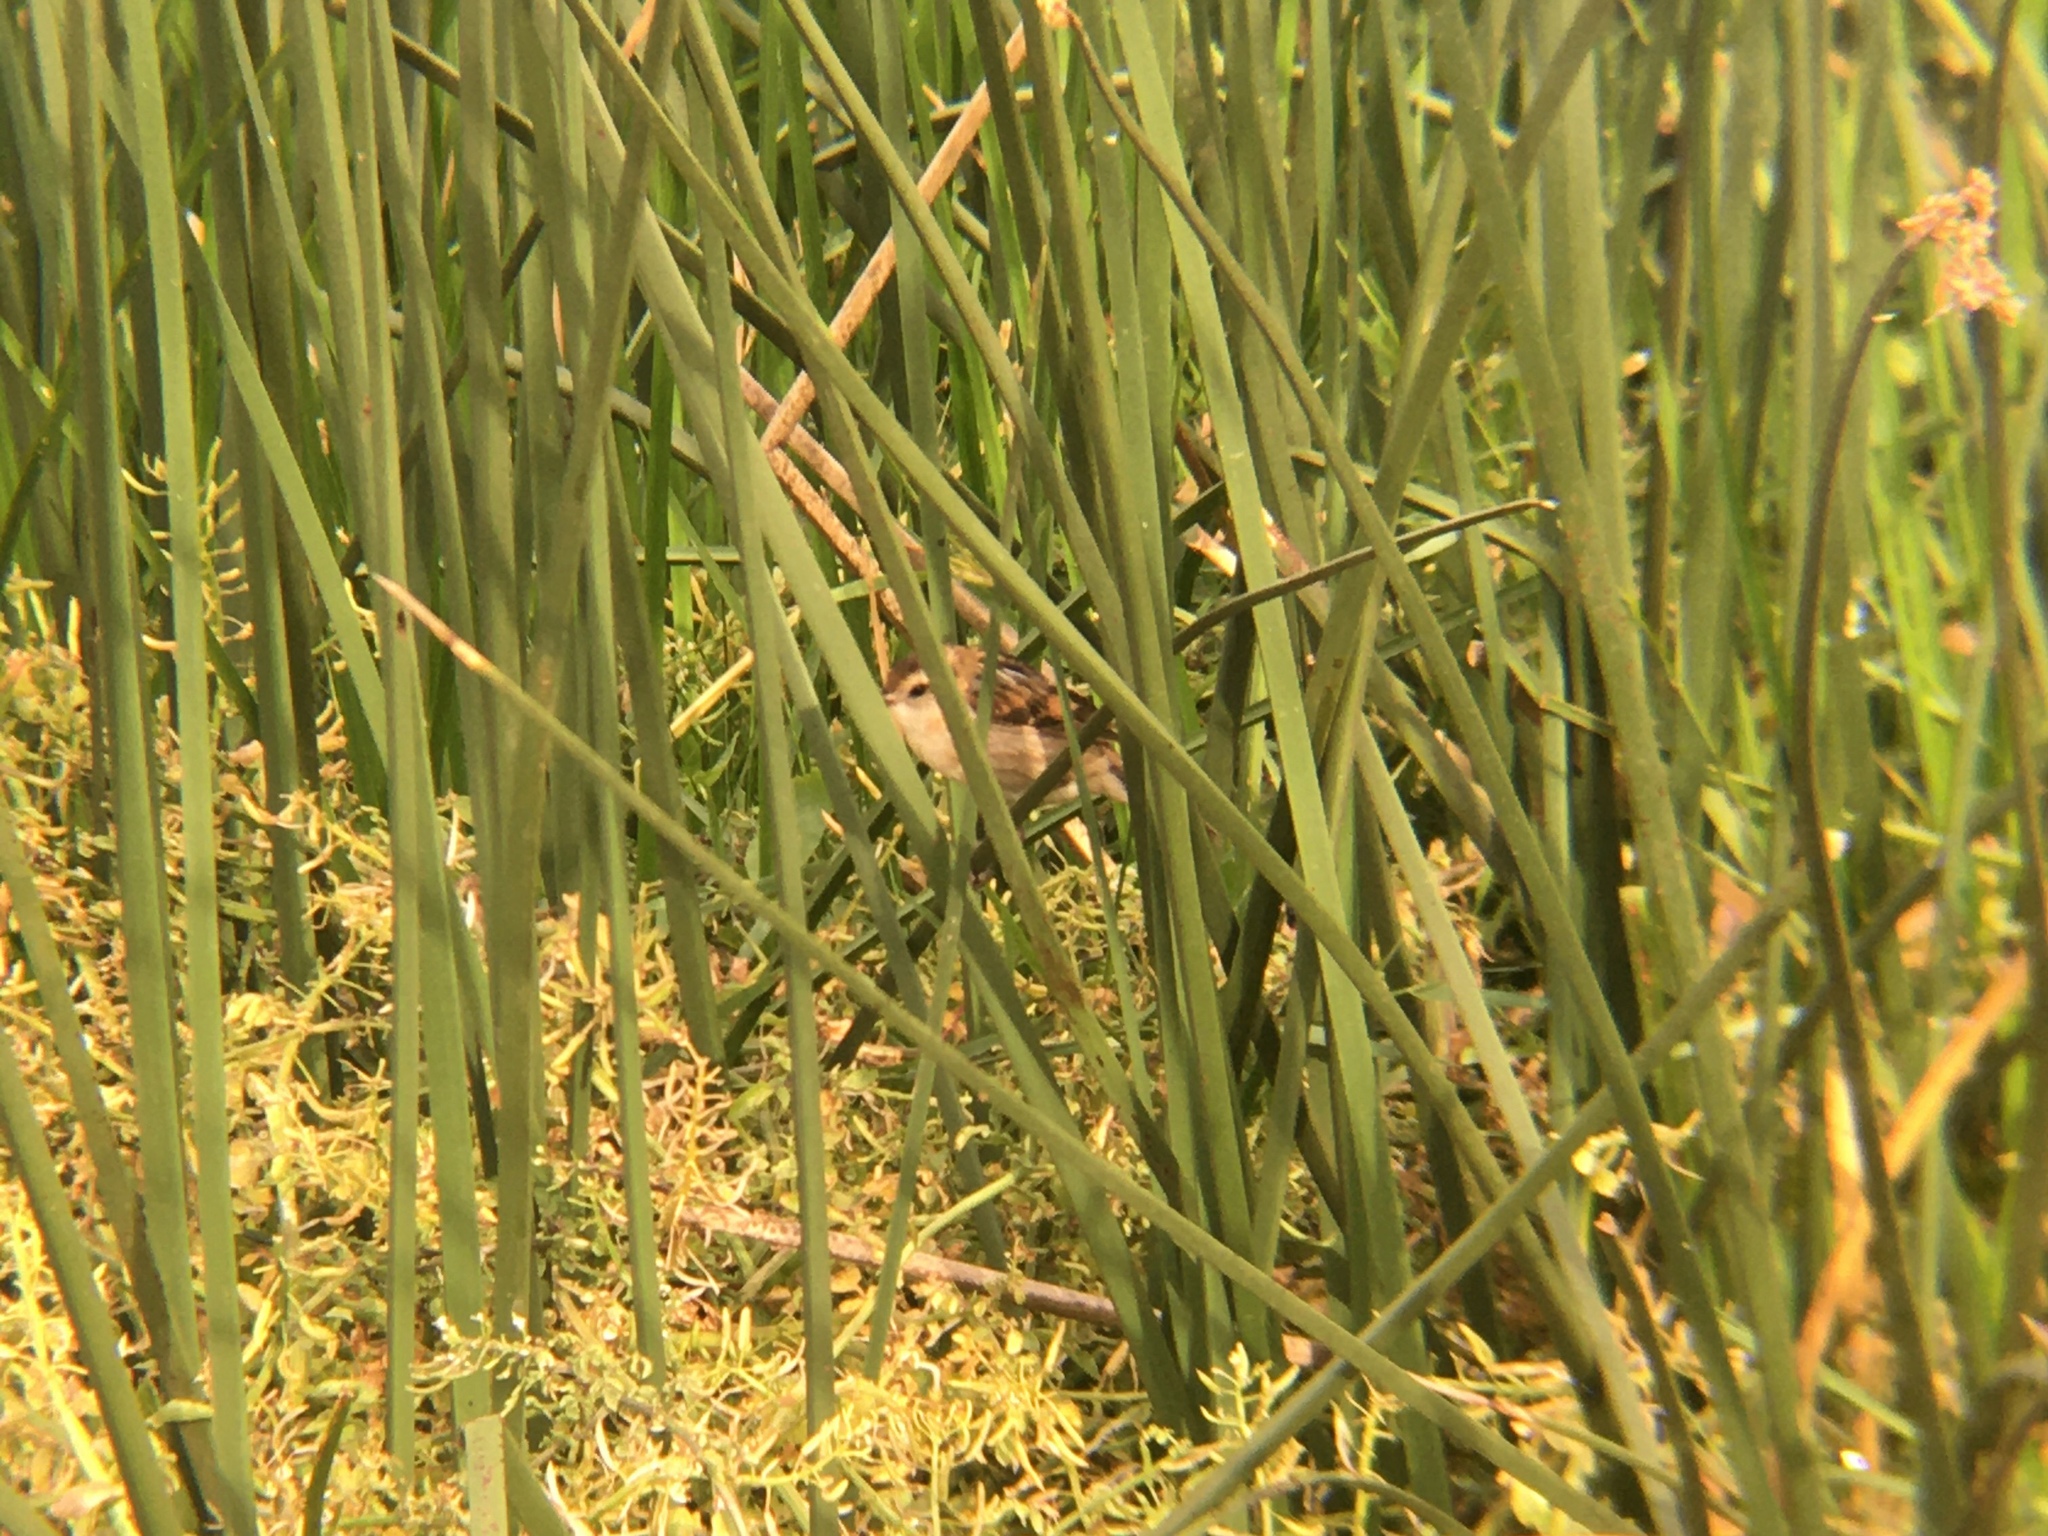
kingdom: Animalia
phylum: Chordata
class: Aves
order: Passeriformes
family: Furnariidae
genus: Phleocryptes
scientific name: Phleocryptes melanops
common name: Wren-like rushbird
